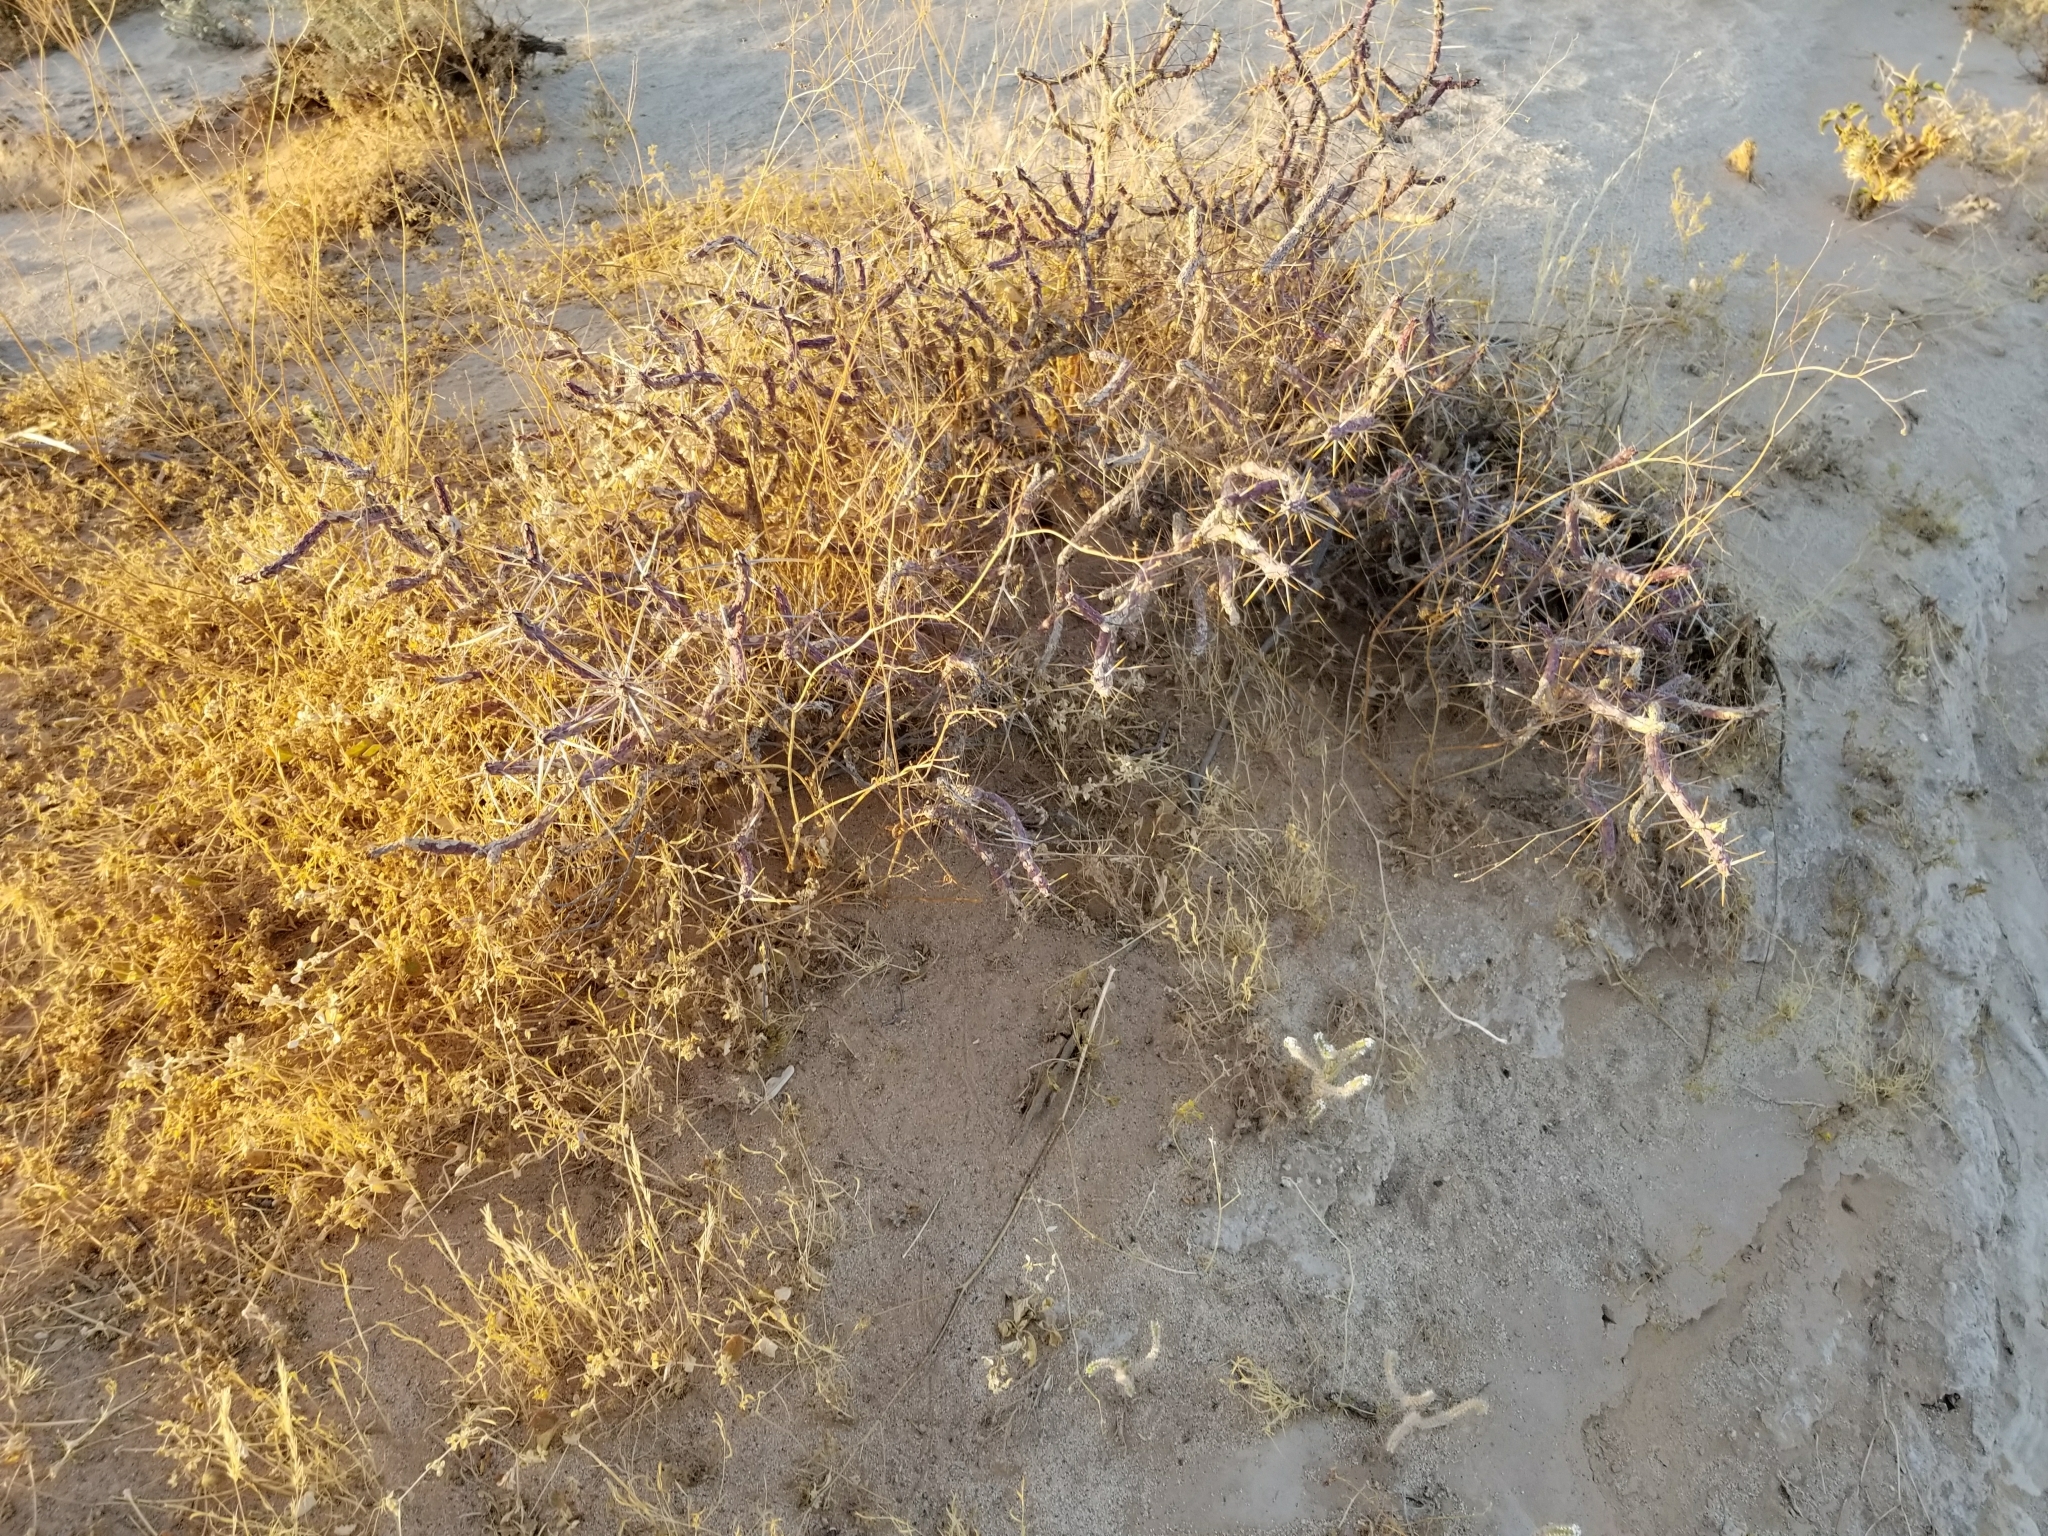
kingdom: Plantae
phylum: Tracheophyta
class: Magnoliopsida
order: Caryophyllales
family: Cactaceae
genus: Cylindropuntia
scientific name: Cylindropuntia ramosissima
